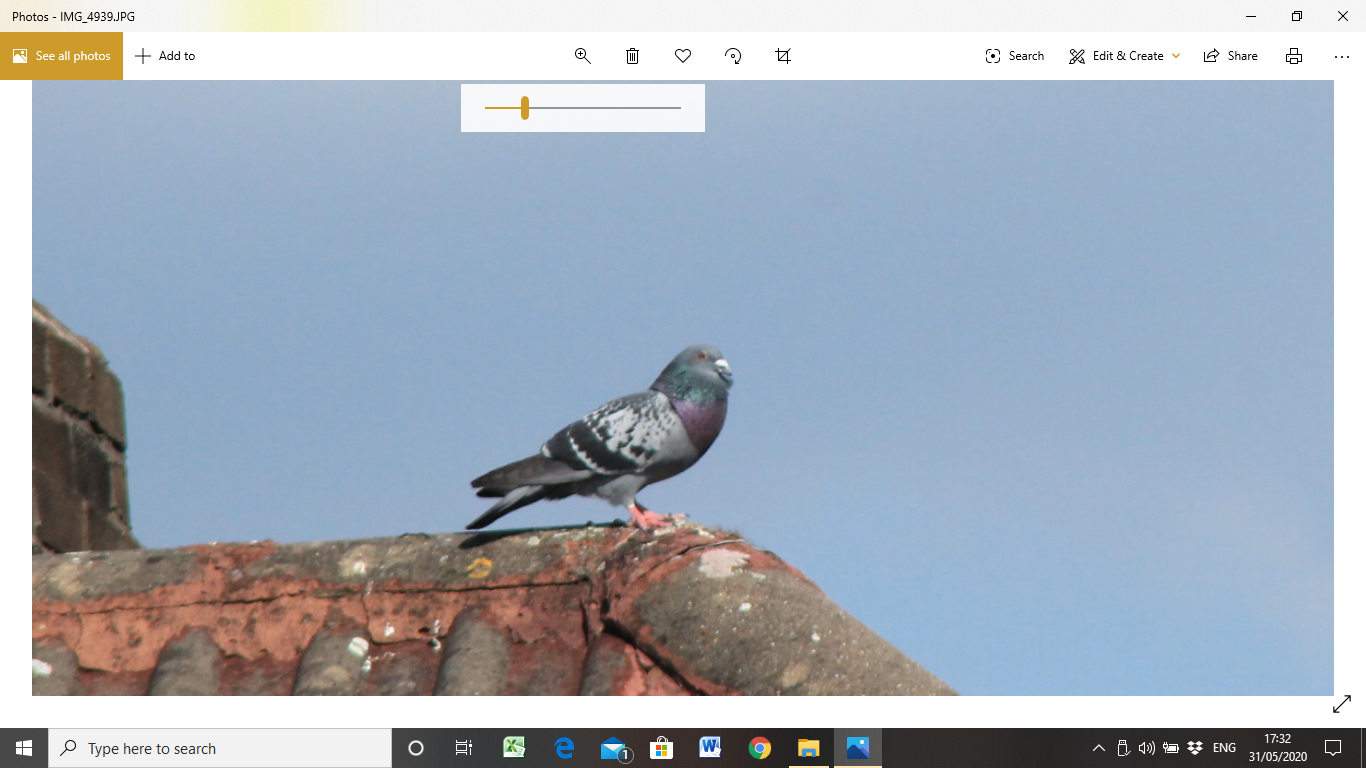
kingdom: Animalia
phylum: Chordata
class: Aves
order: Columbiformes
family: Columbidae
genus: Columba
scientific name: Columba livia
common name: Rock pigeon
